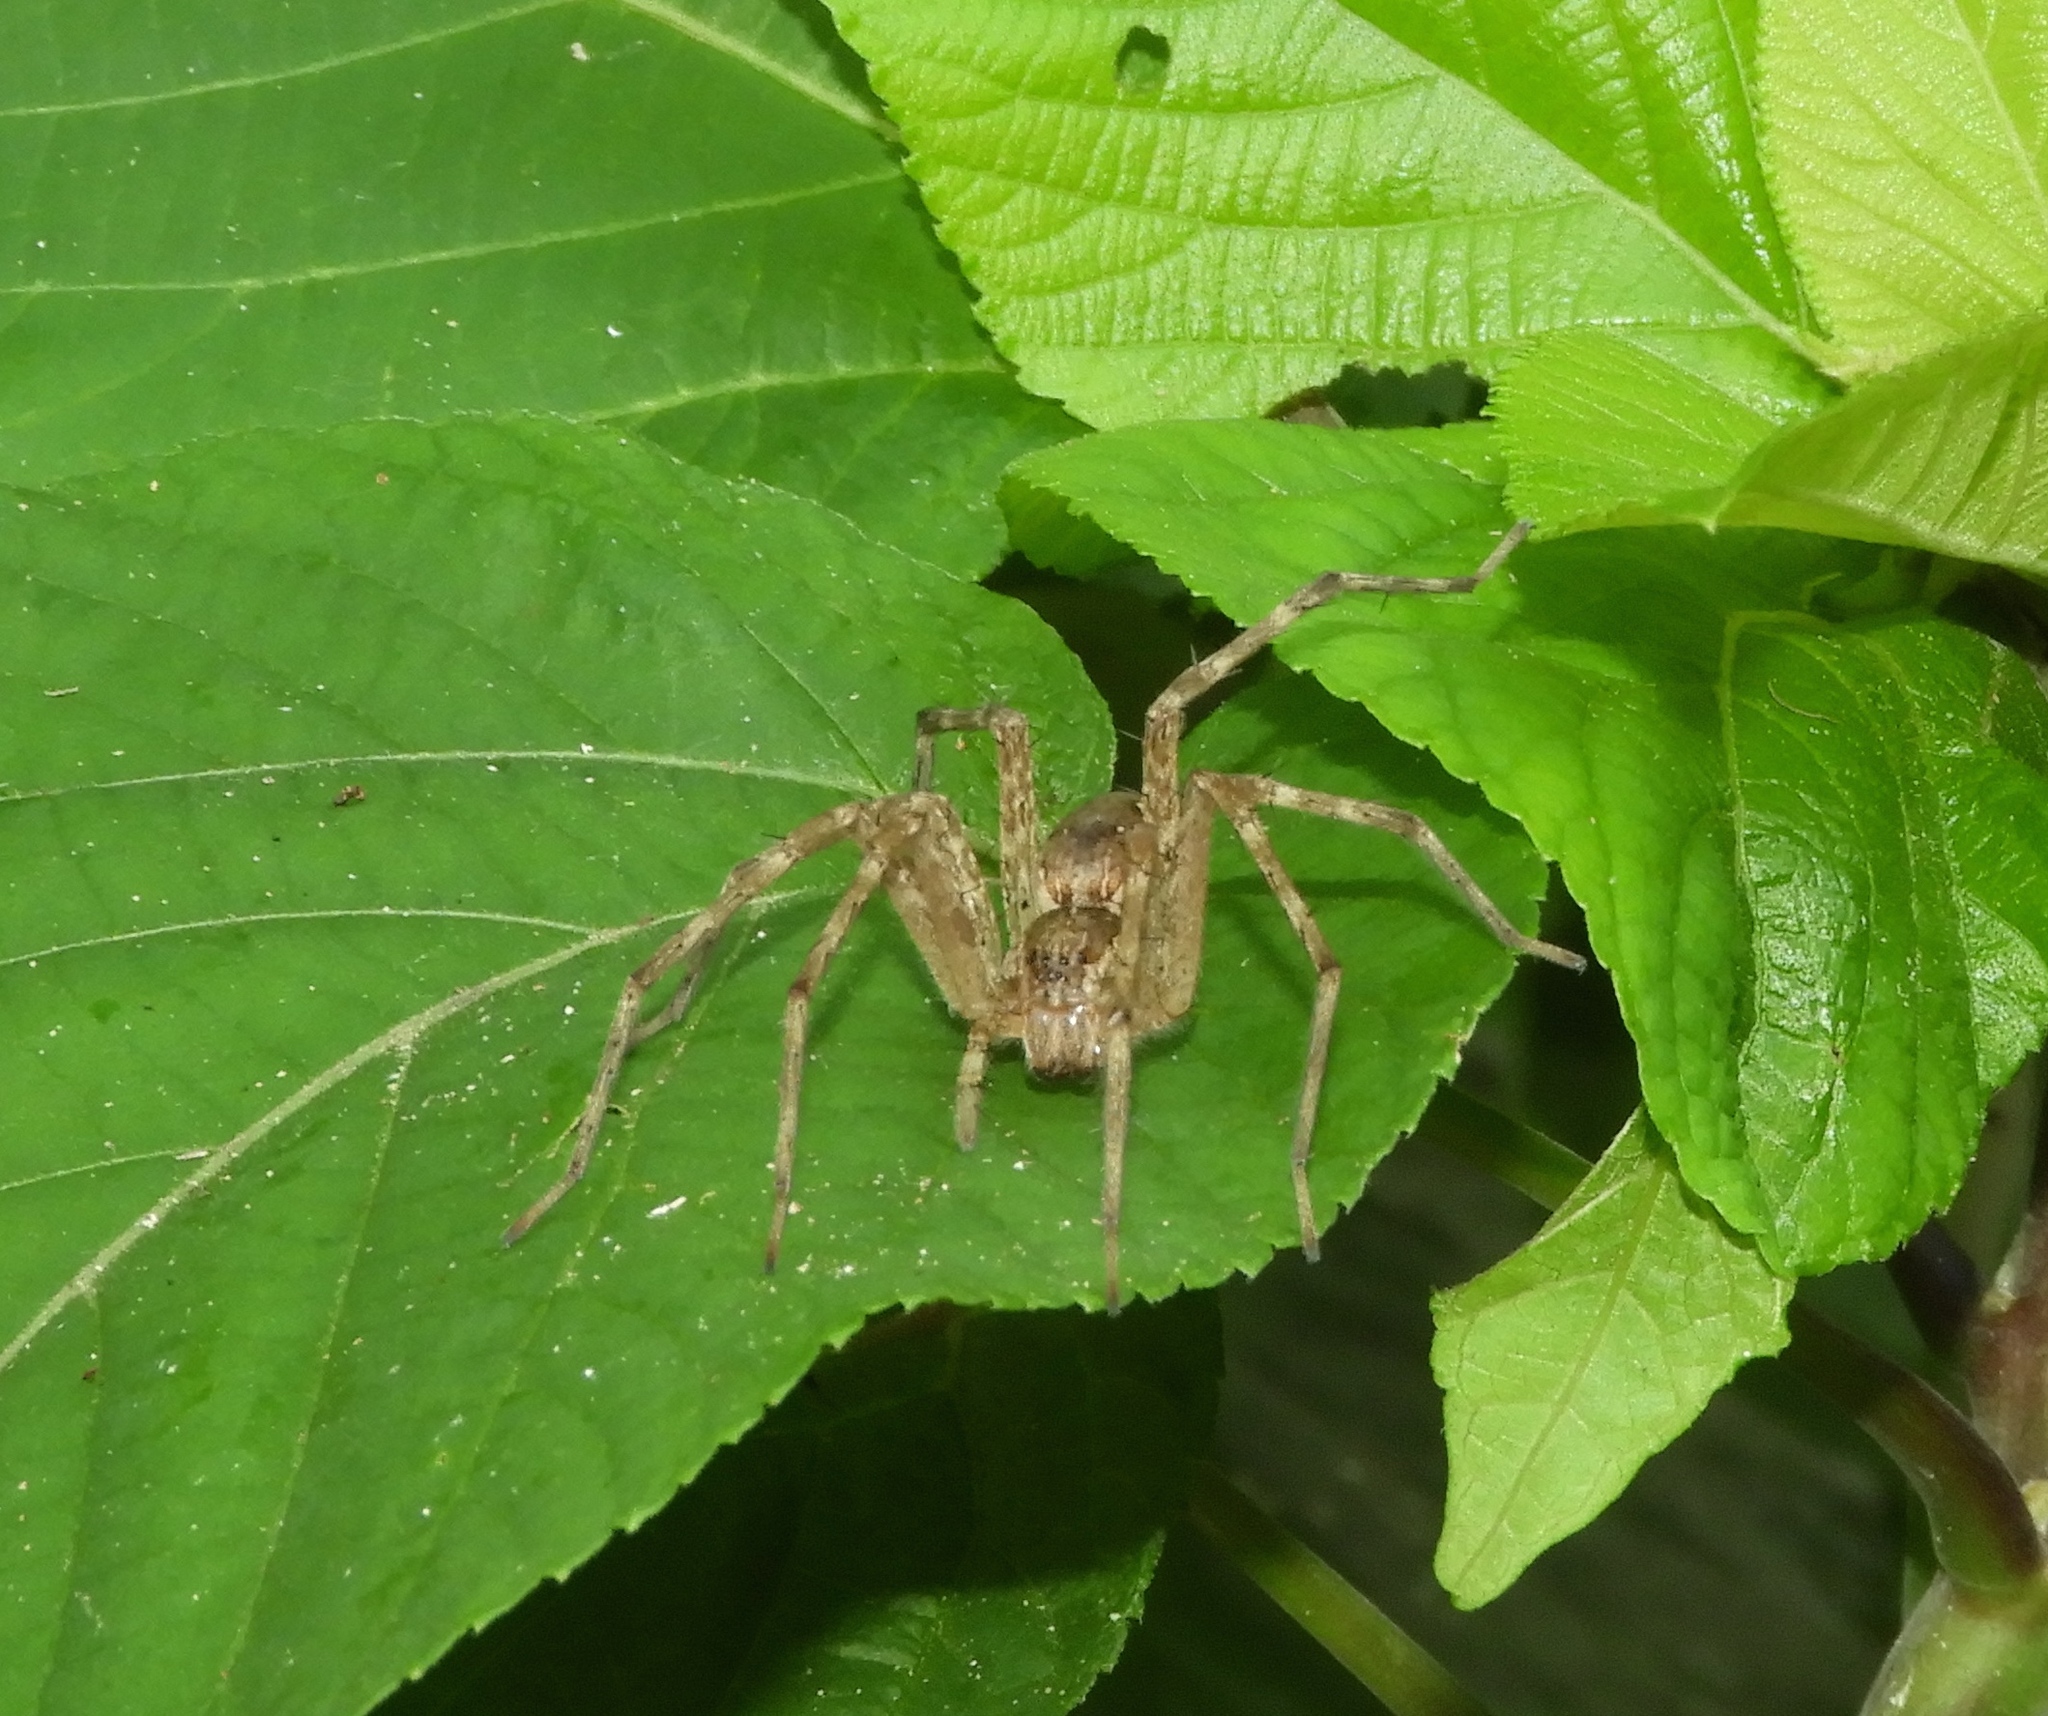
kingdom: Animalia
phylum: Arthropoda
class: Arachnida
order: Araneae
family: Pisauridae
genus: Tinus
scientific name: Tinus
